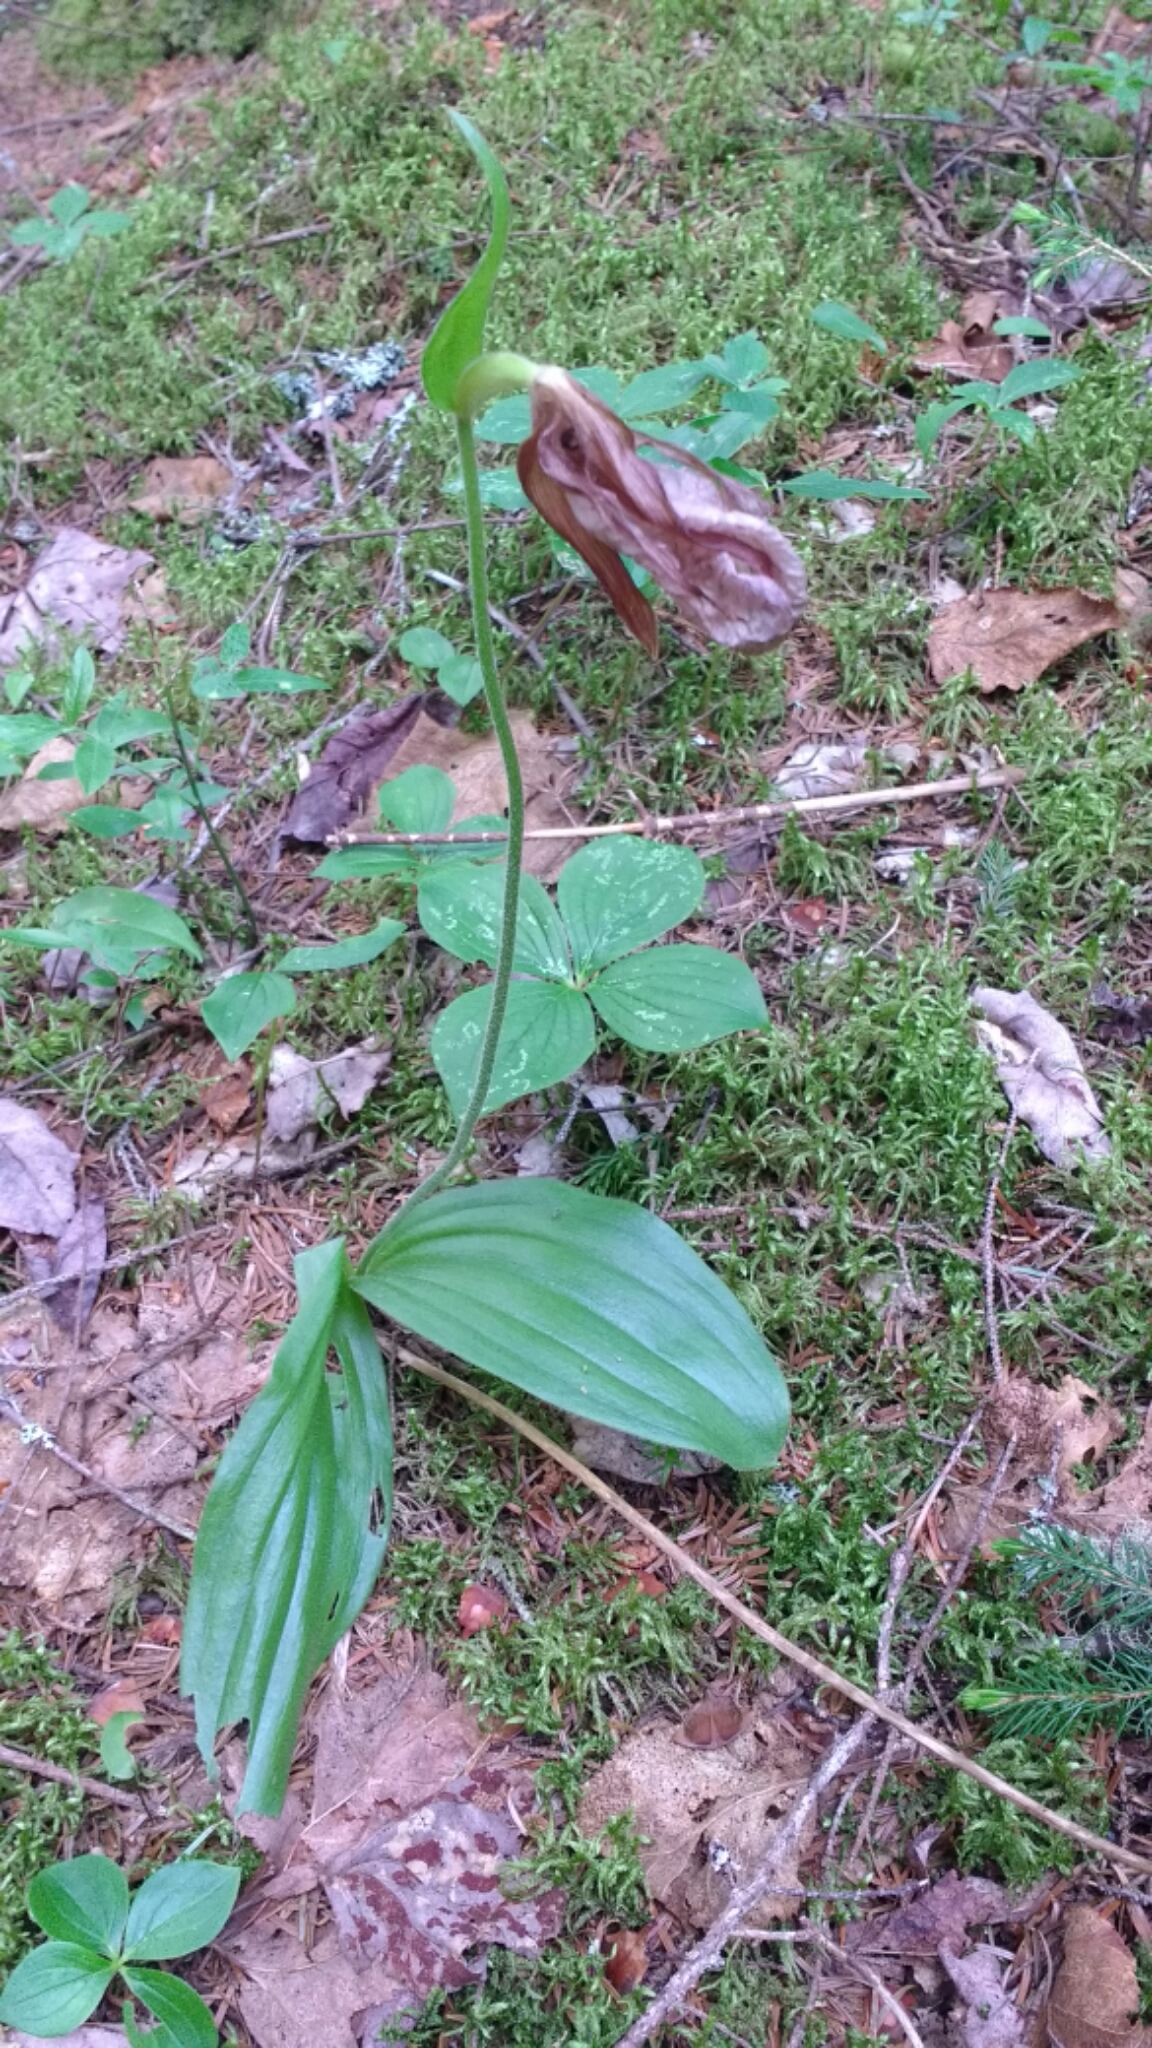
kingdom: Plantae
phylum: Tracheophyta
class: Liliopsida
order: Asparagales
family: Orchidaceae
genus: Cypripedium
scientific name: Cypripedium acaule
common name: Pink lady's-slipper
